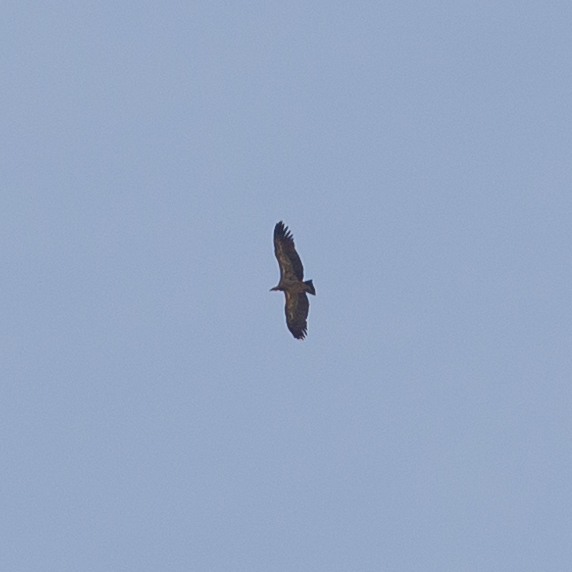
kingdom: Animalia
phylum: Chordata
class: Aves
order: Accipitriformes
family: Accipitridae
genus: Gyps
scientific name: Gyps fulvus
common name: Griffon vulture
